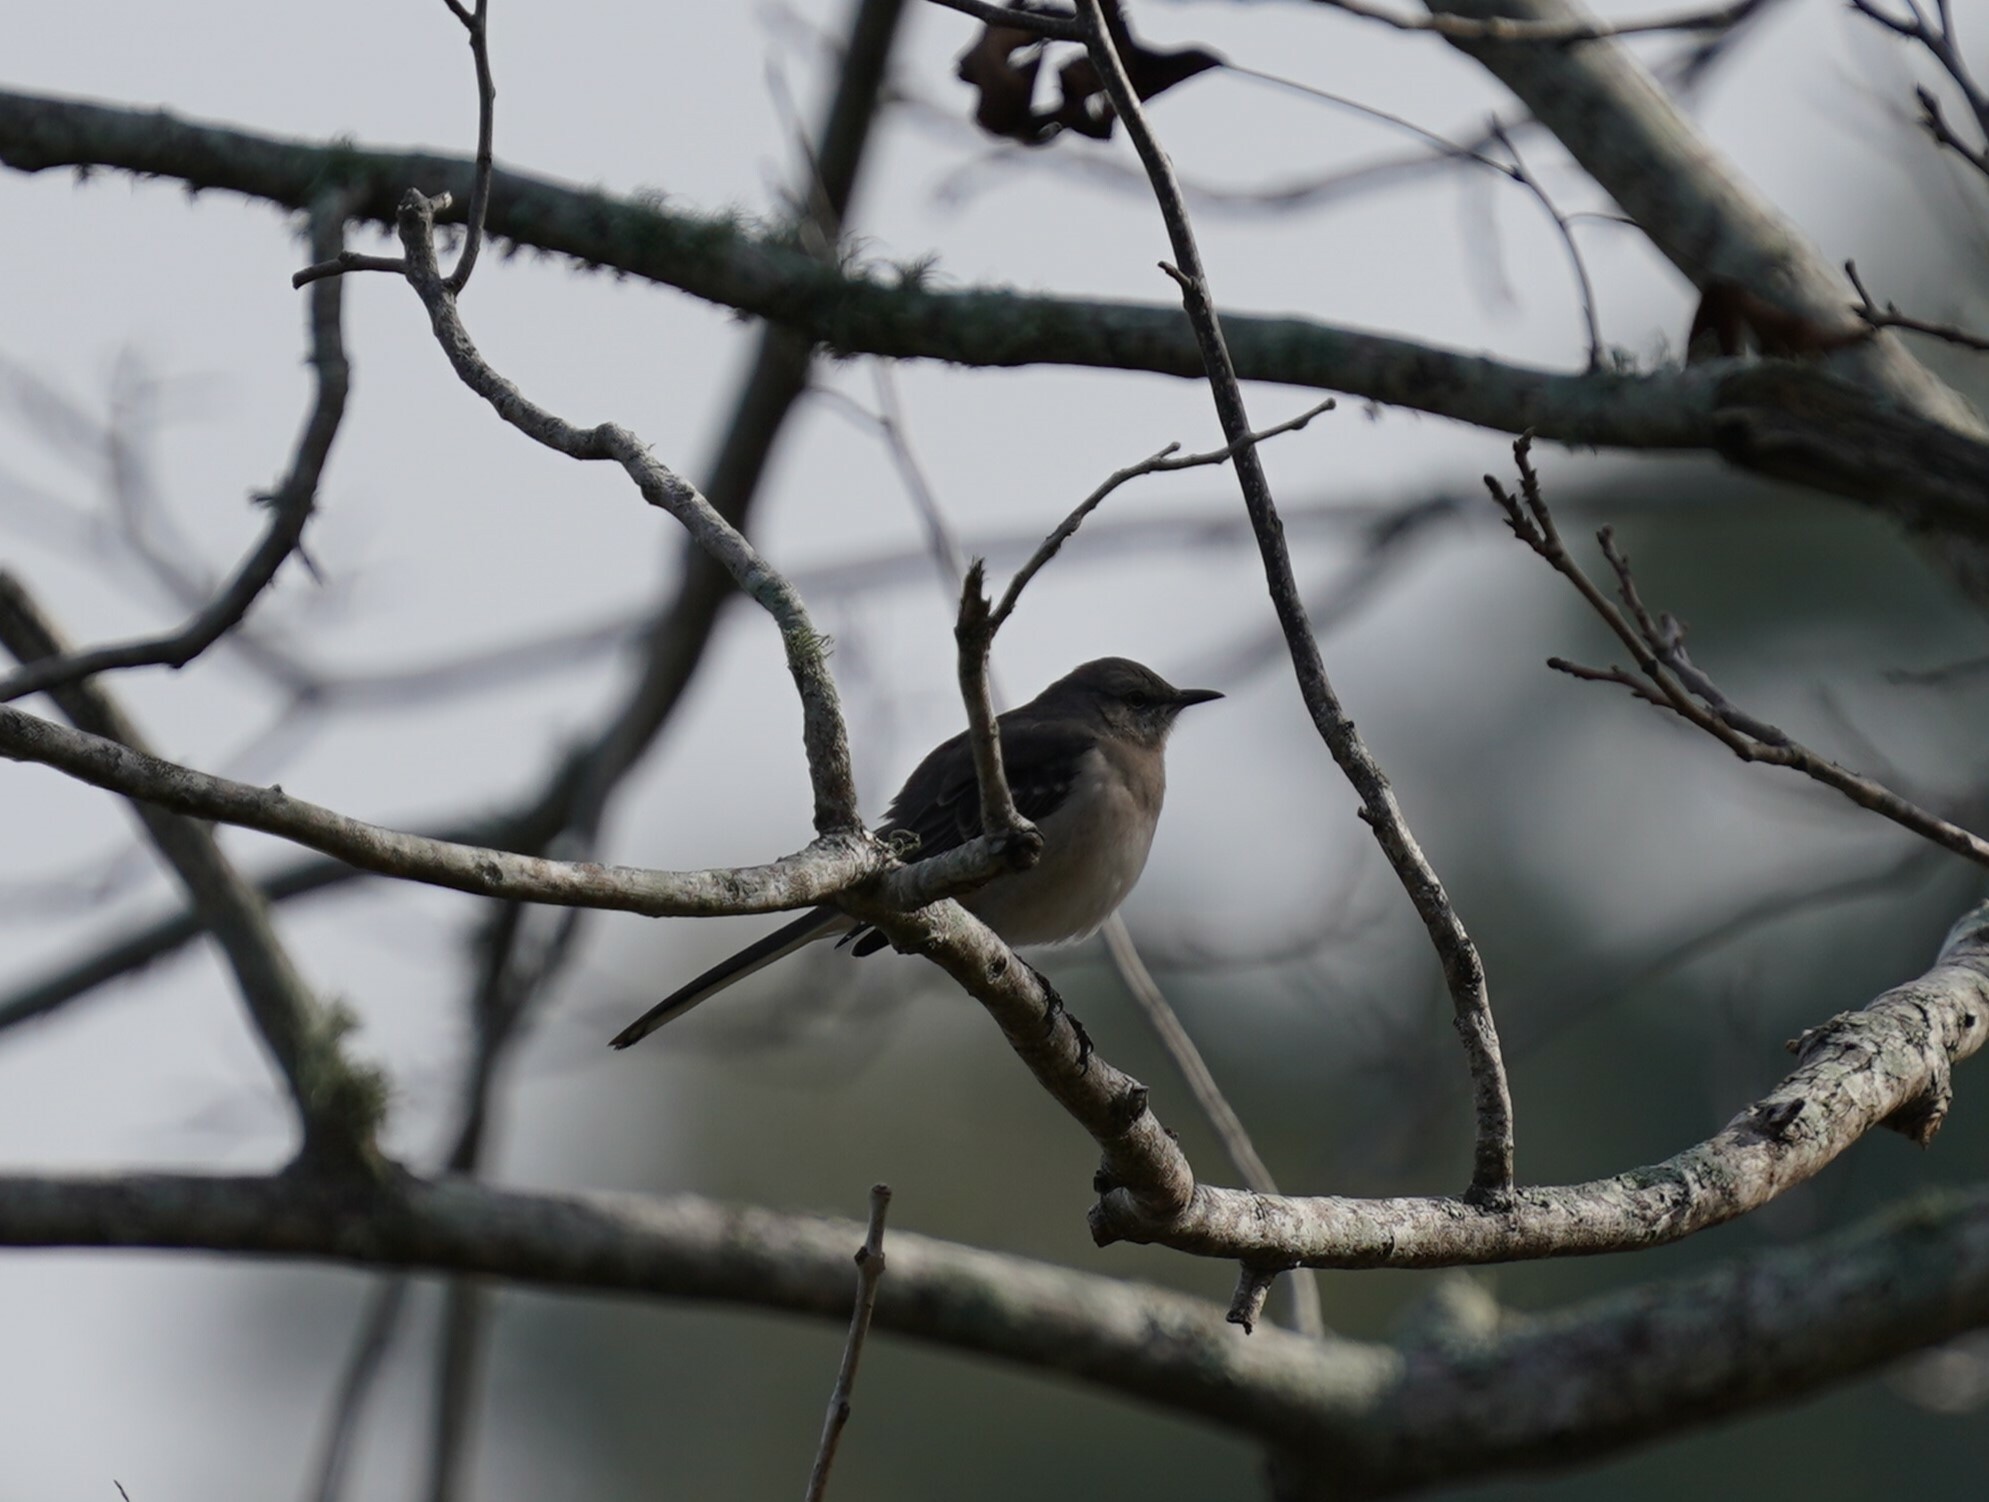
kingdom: Animalia
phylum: Chordata
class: Aves
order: Passeriformes
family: Mimidae
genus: Mimus
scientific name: Mimus polyglottos
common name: Northern mockingbird
